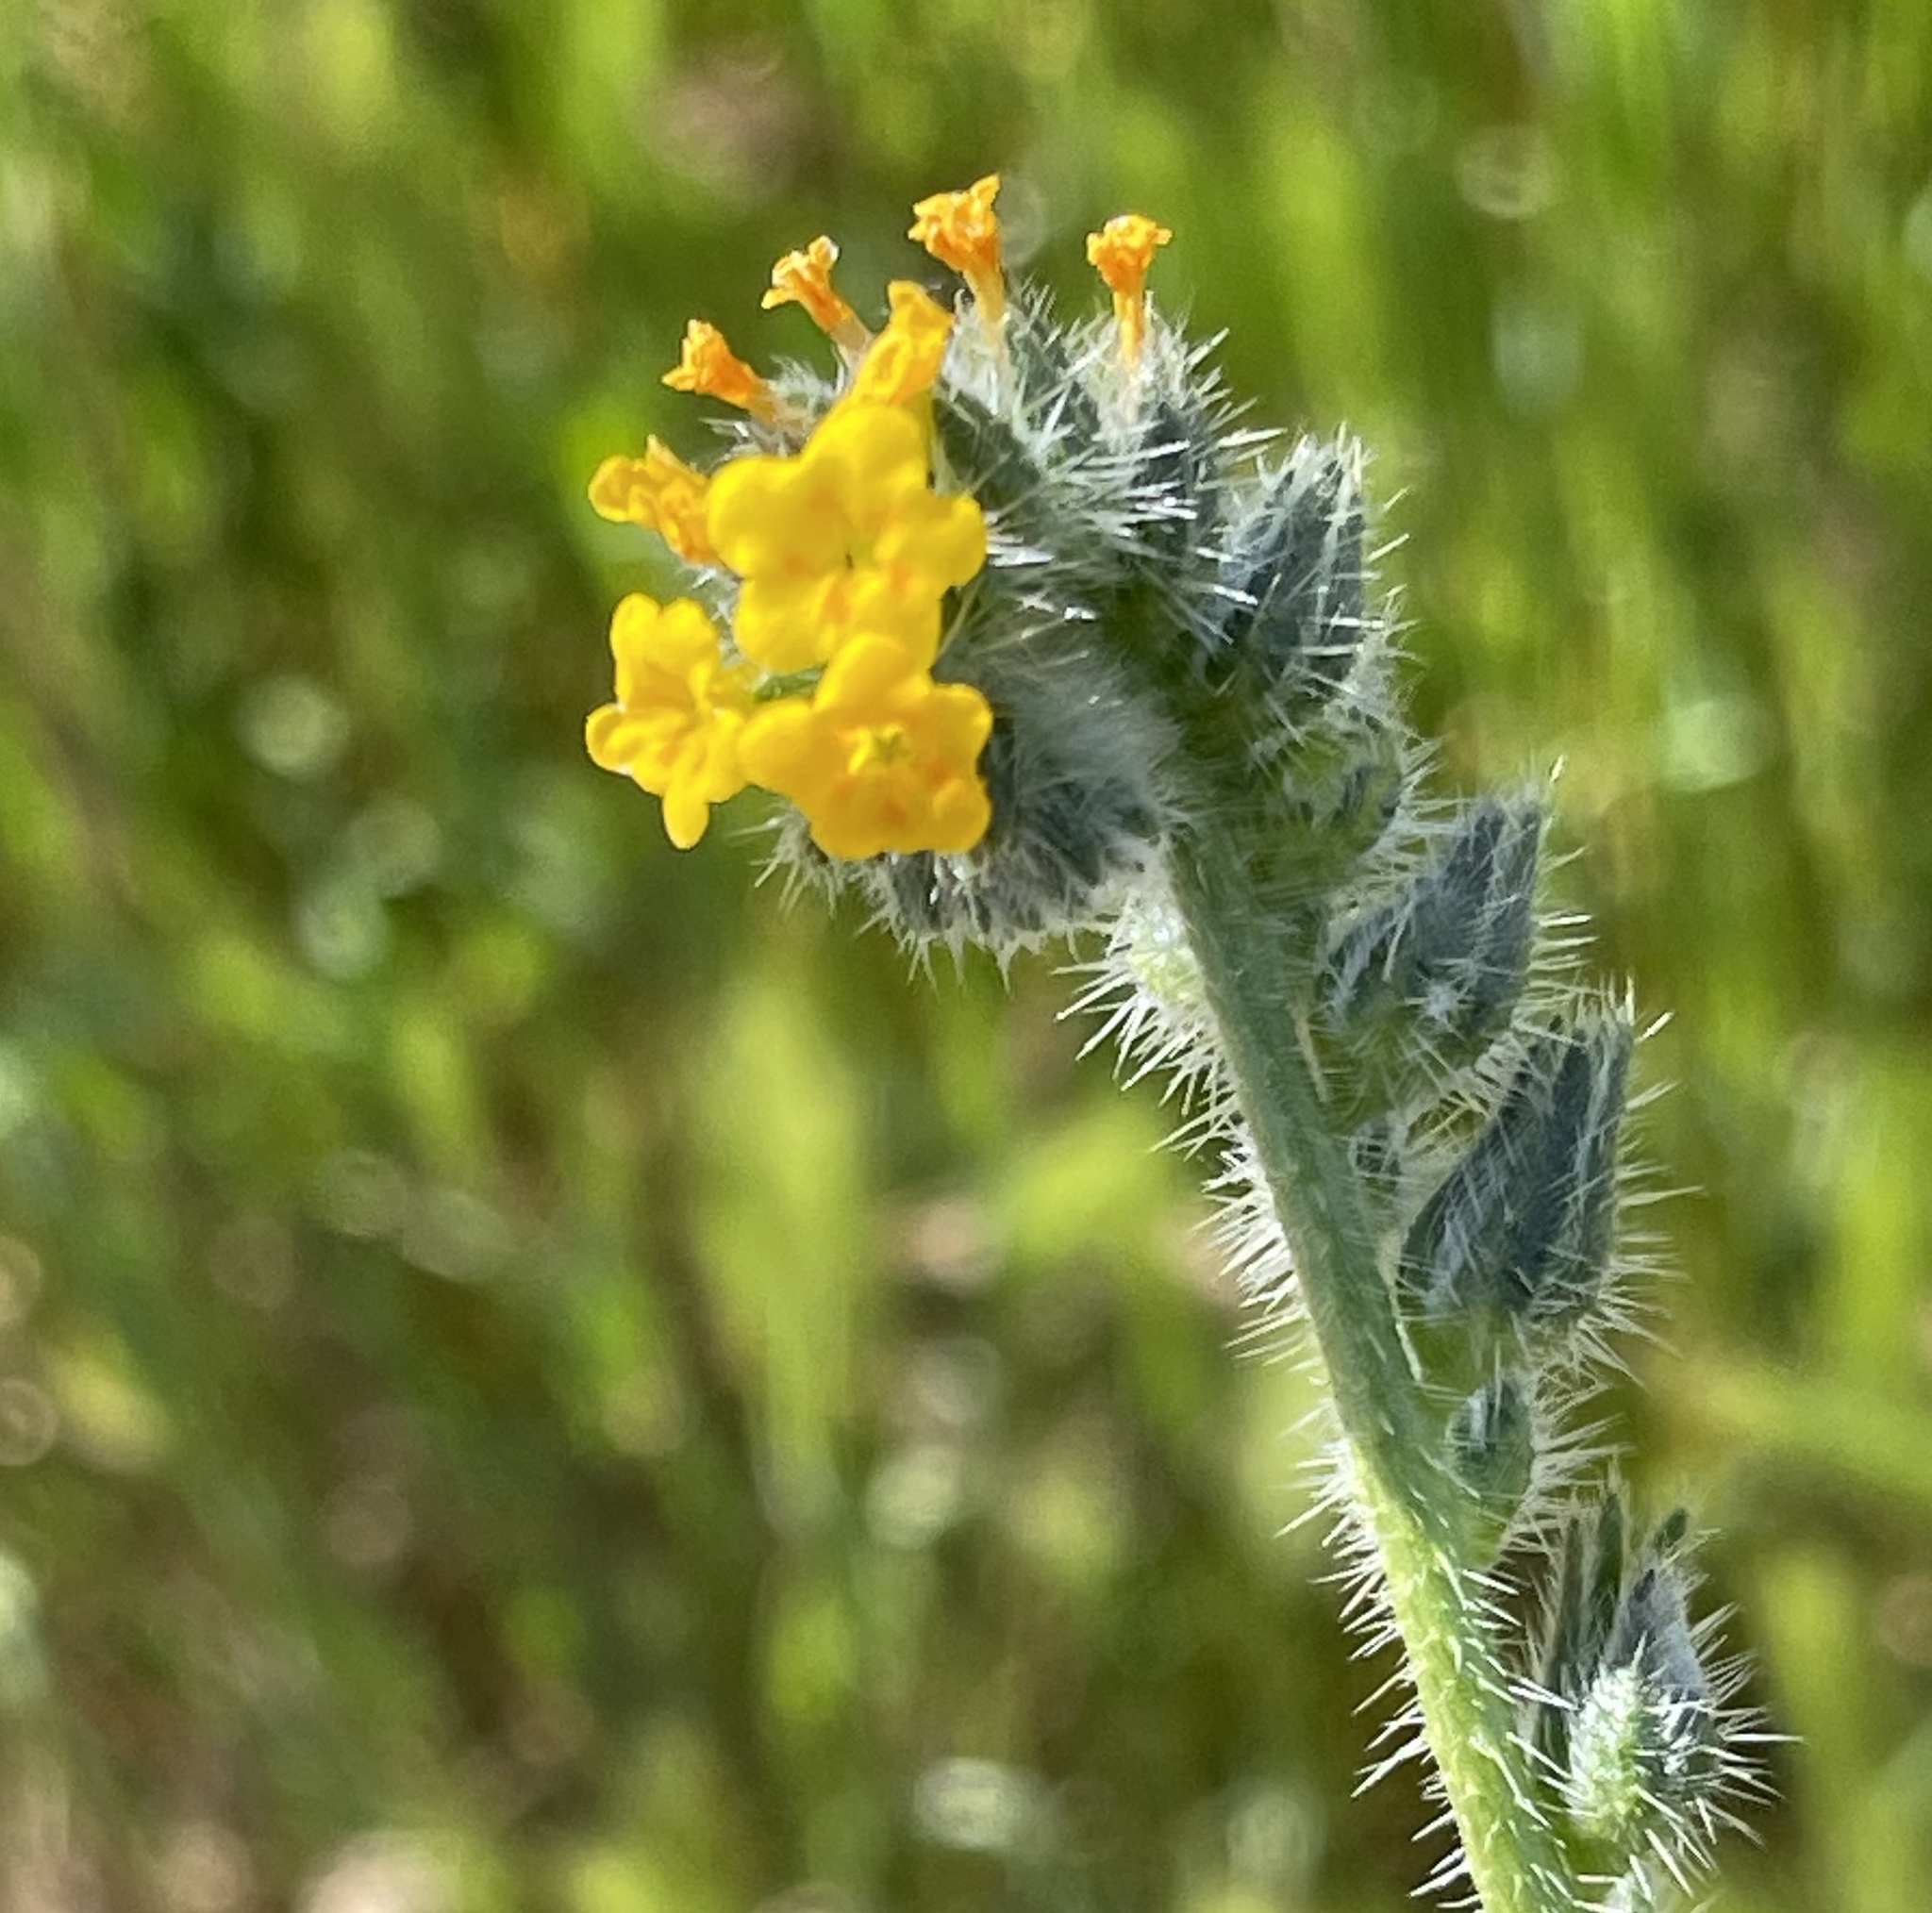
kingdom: Plantae
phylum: Tracheophyta
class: Magnoliopsida
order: Boraginales
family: Boraginaceae
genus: Amsinckia
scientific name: Amsinckia menziesii
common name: Menzies' fiddleneck
